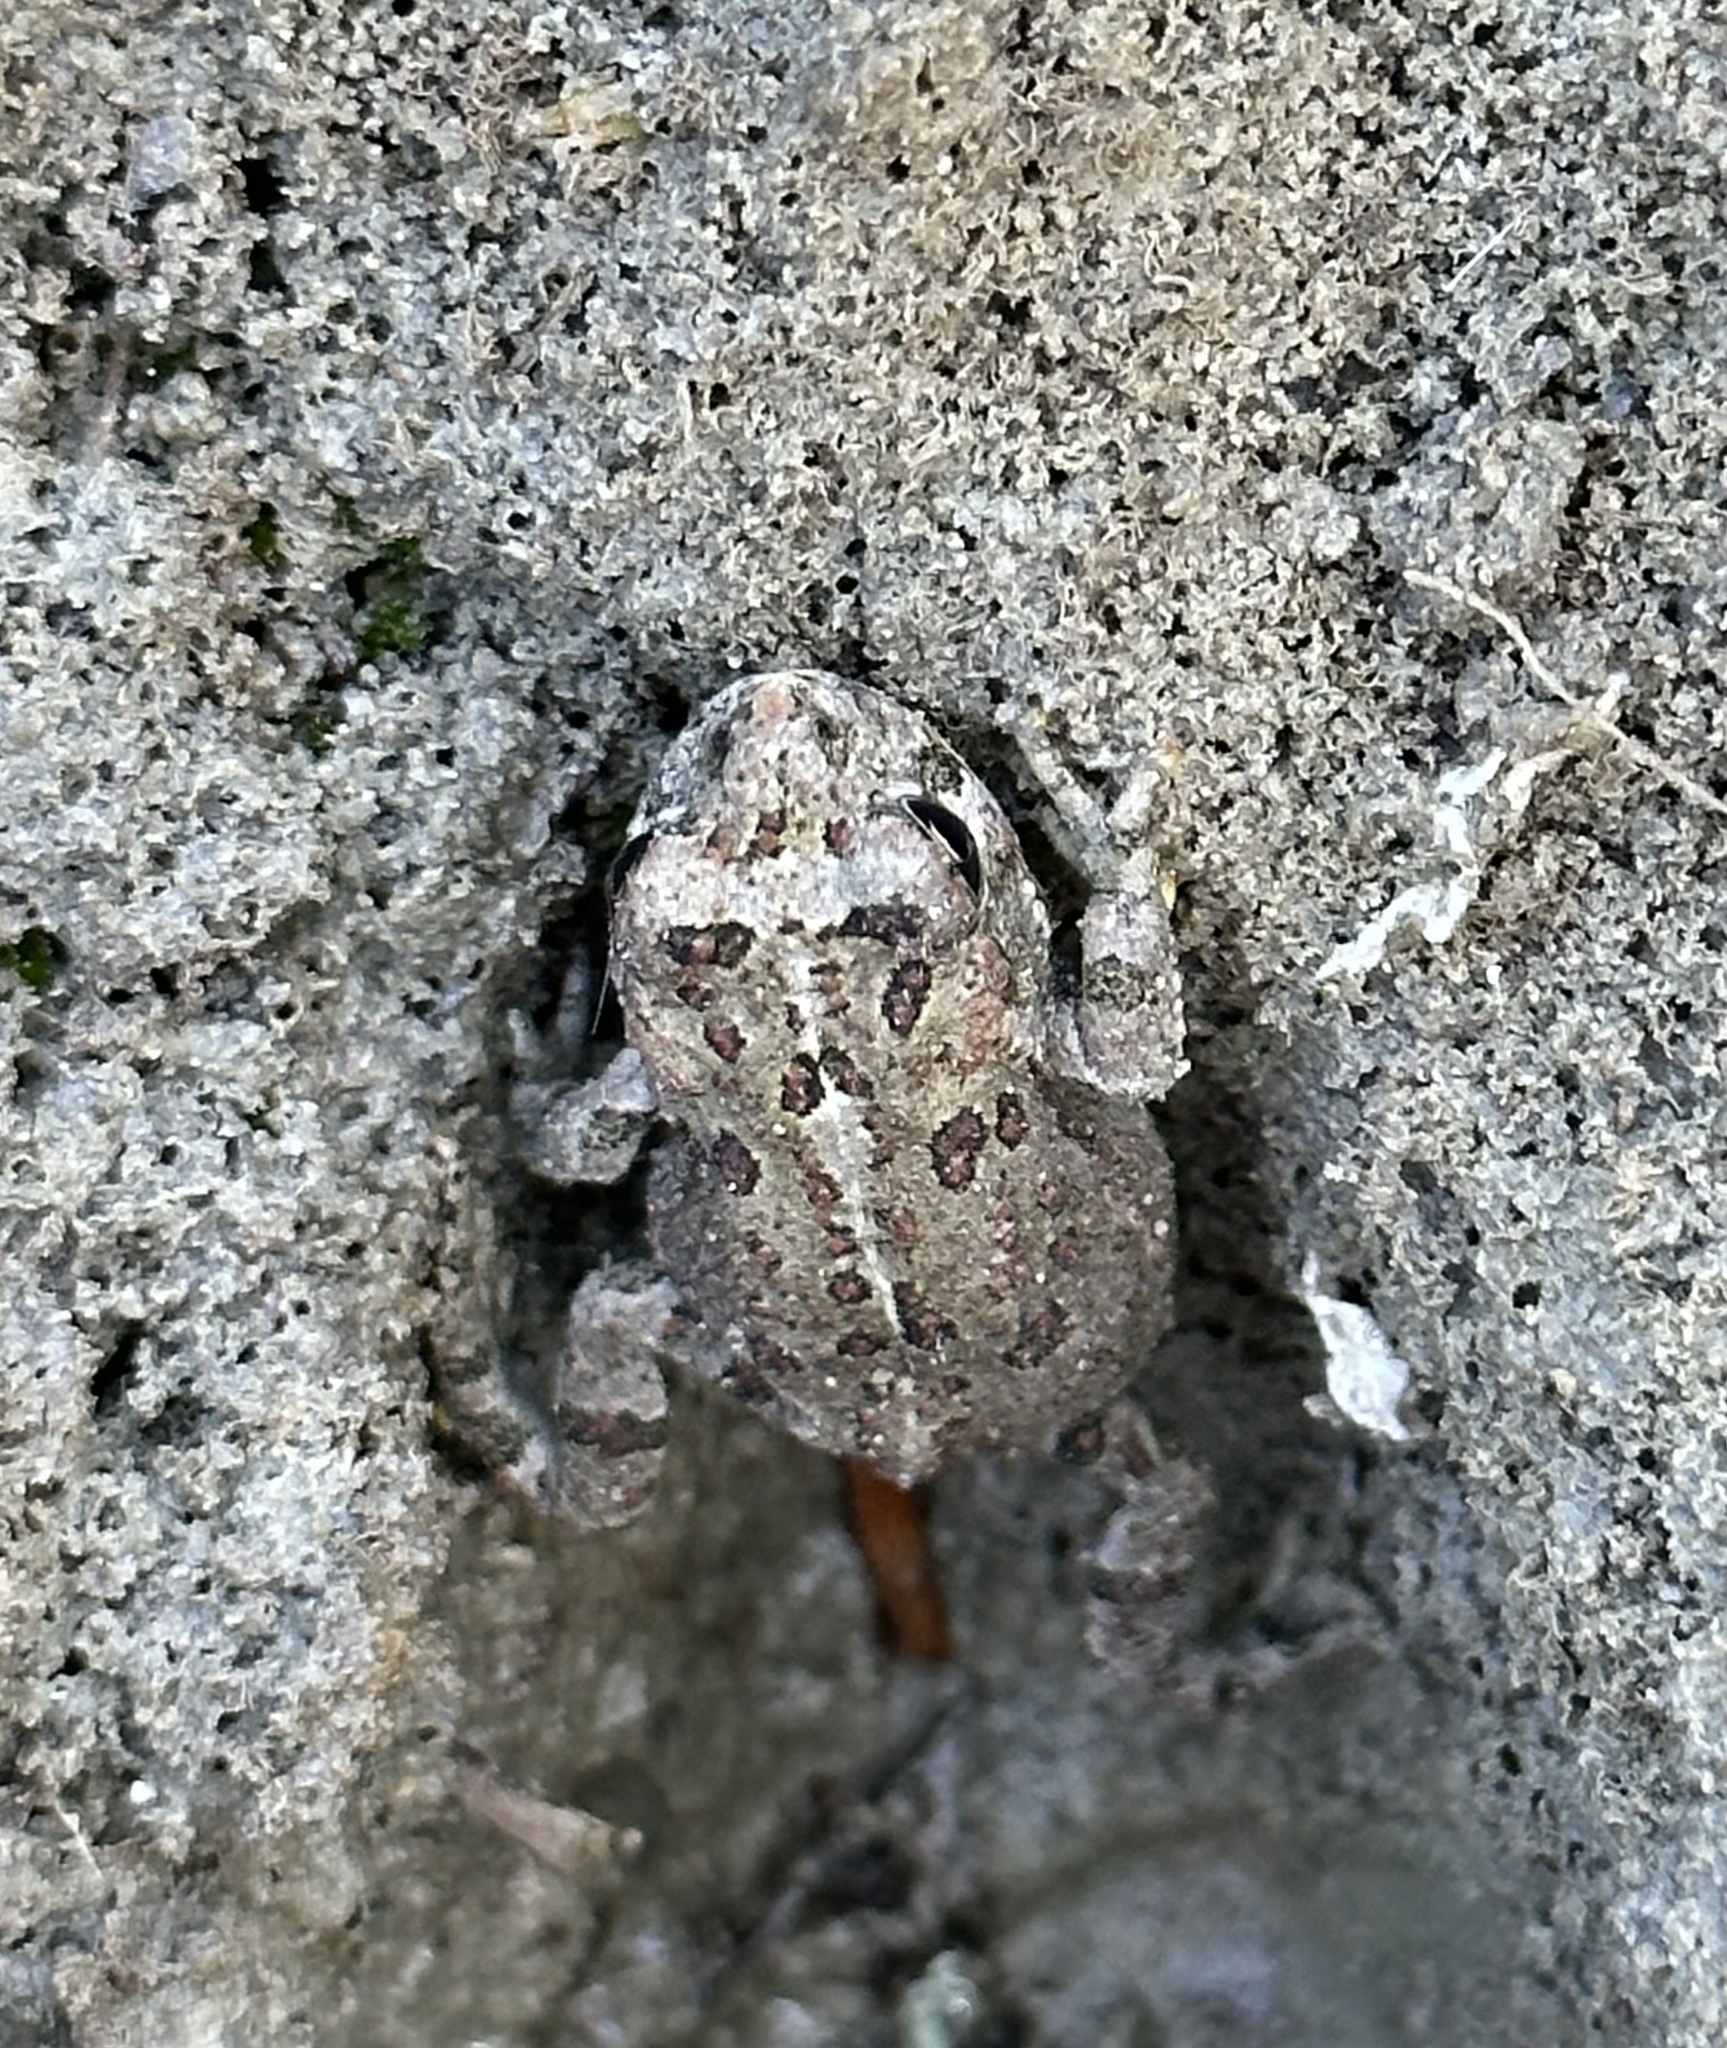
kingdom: Animalia
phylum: Chordata
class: Amphibia
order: Anura
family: Bufonidae
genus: Anaxyrus
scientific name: Anaxyrus boreas
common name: Western toad
